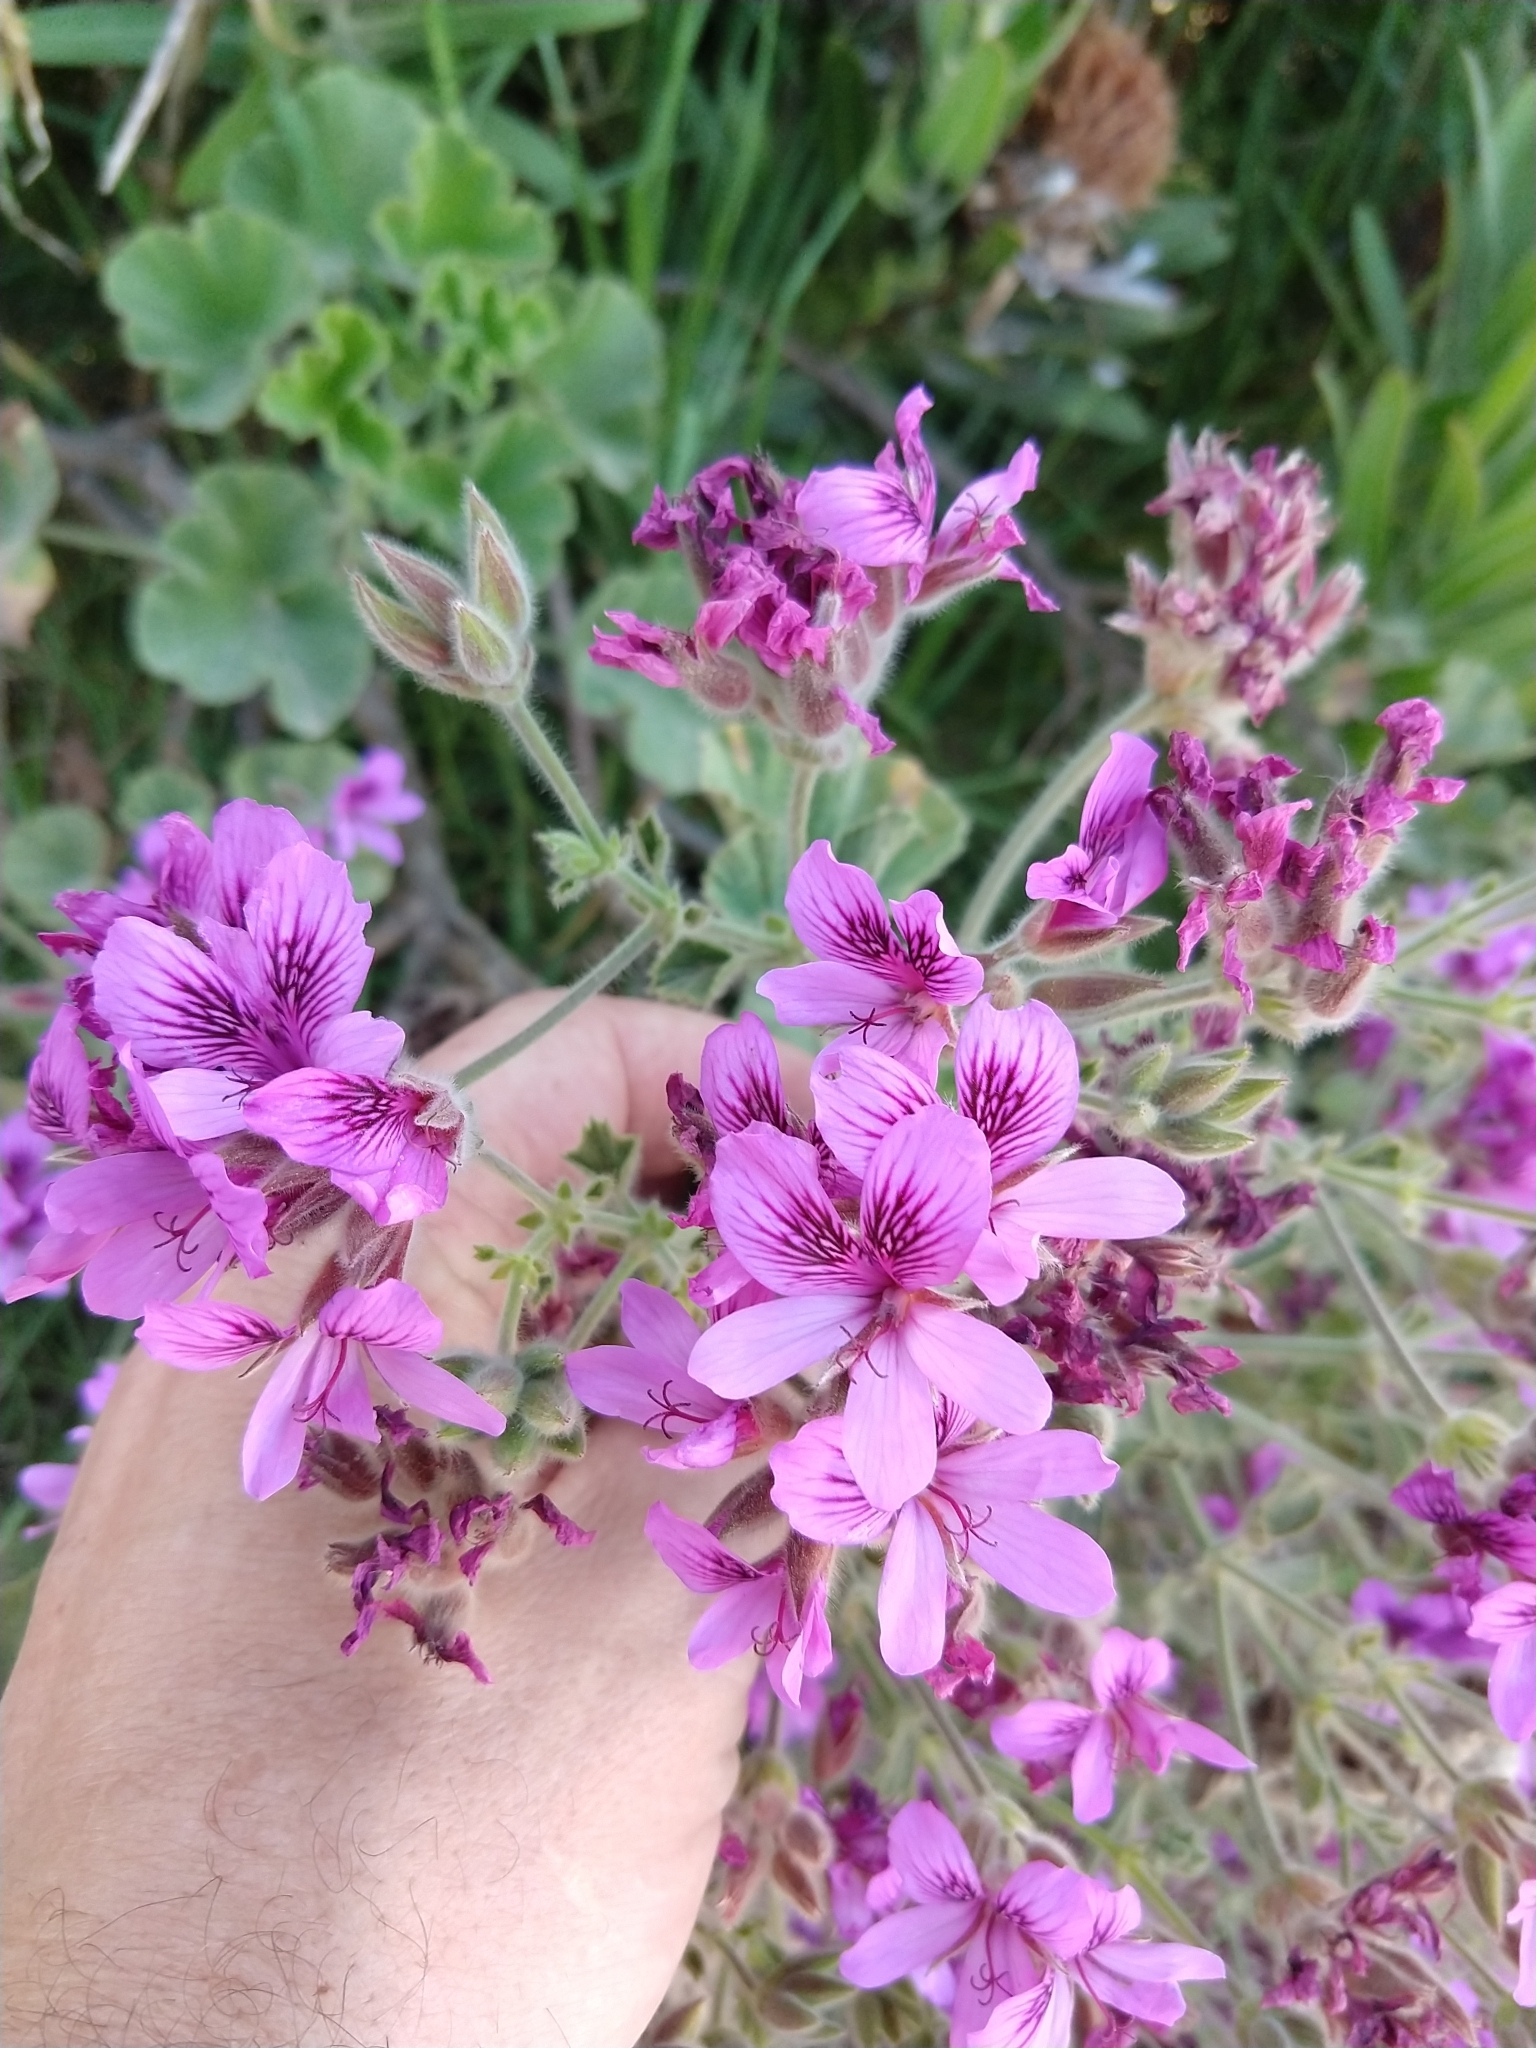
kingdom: Plantae
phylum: Tracheophyta
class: Magnoliopsida
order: Geraniales
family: Geraniaceae
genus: Pelargonium
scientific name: Pelargonium cucullatum
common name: Tree pelargonium
